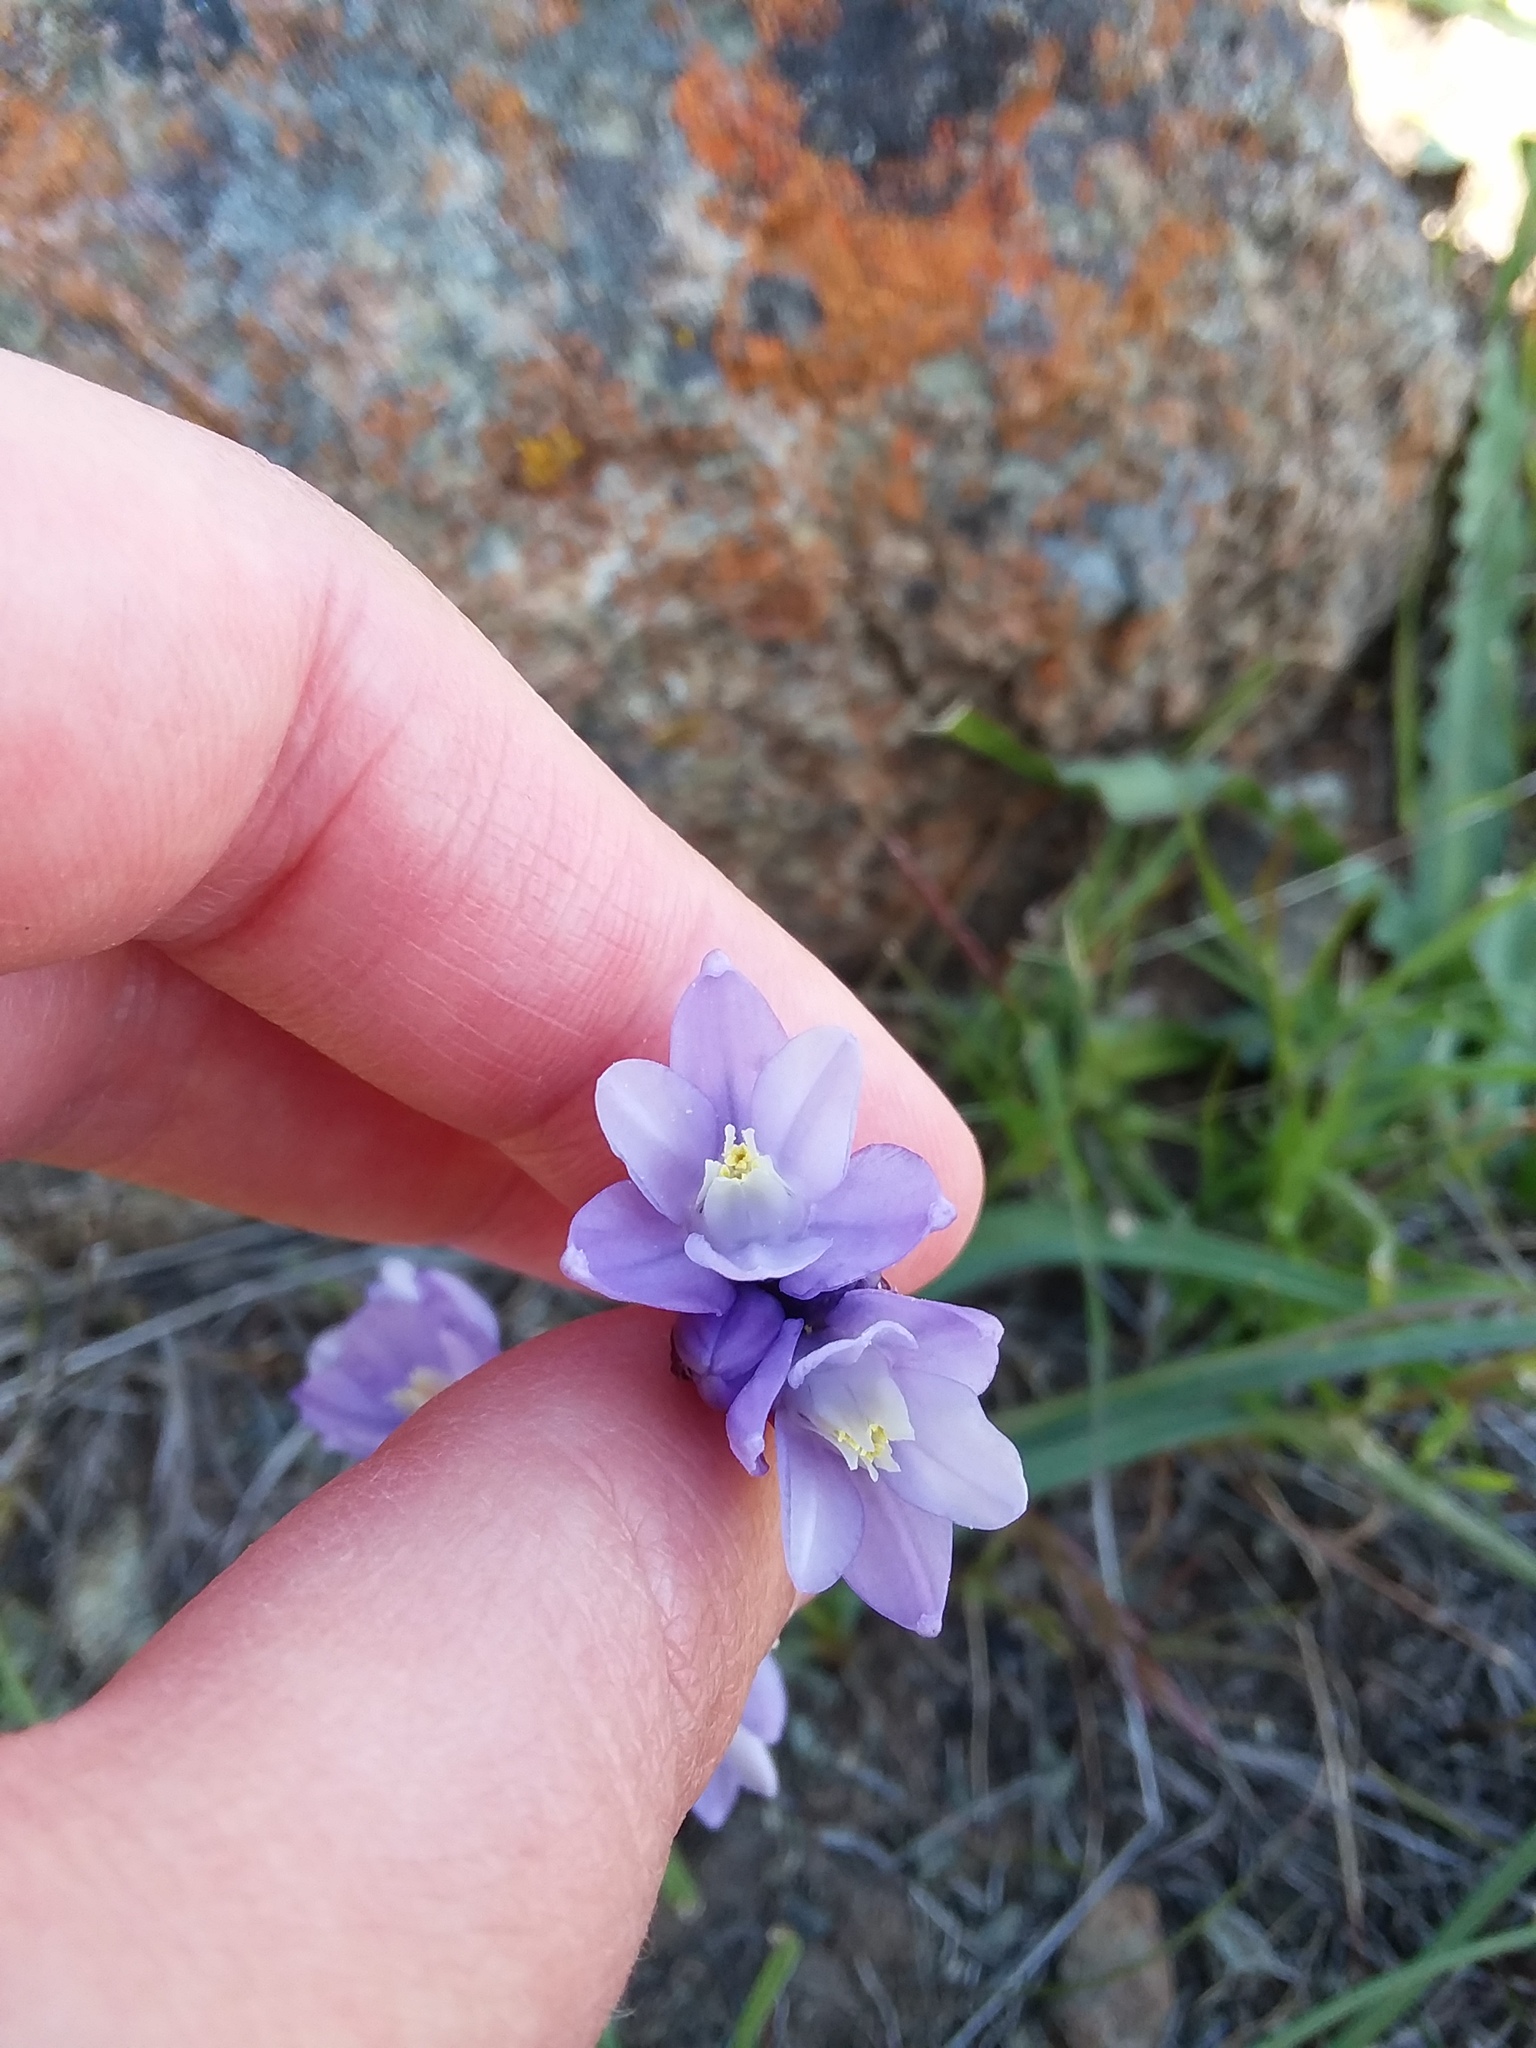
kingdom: Plantae
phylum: Tracheophyta
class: Liliopsida
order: Asparagales
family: Asparagaceae
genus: Dipterostemon
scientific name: Dipterostemon capitatus
